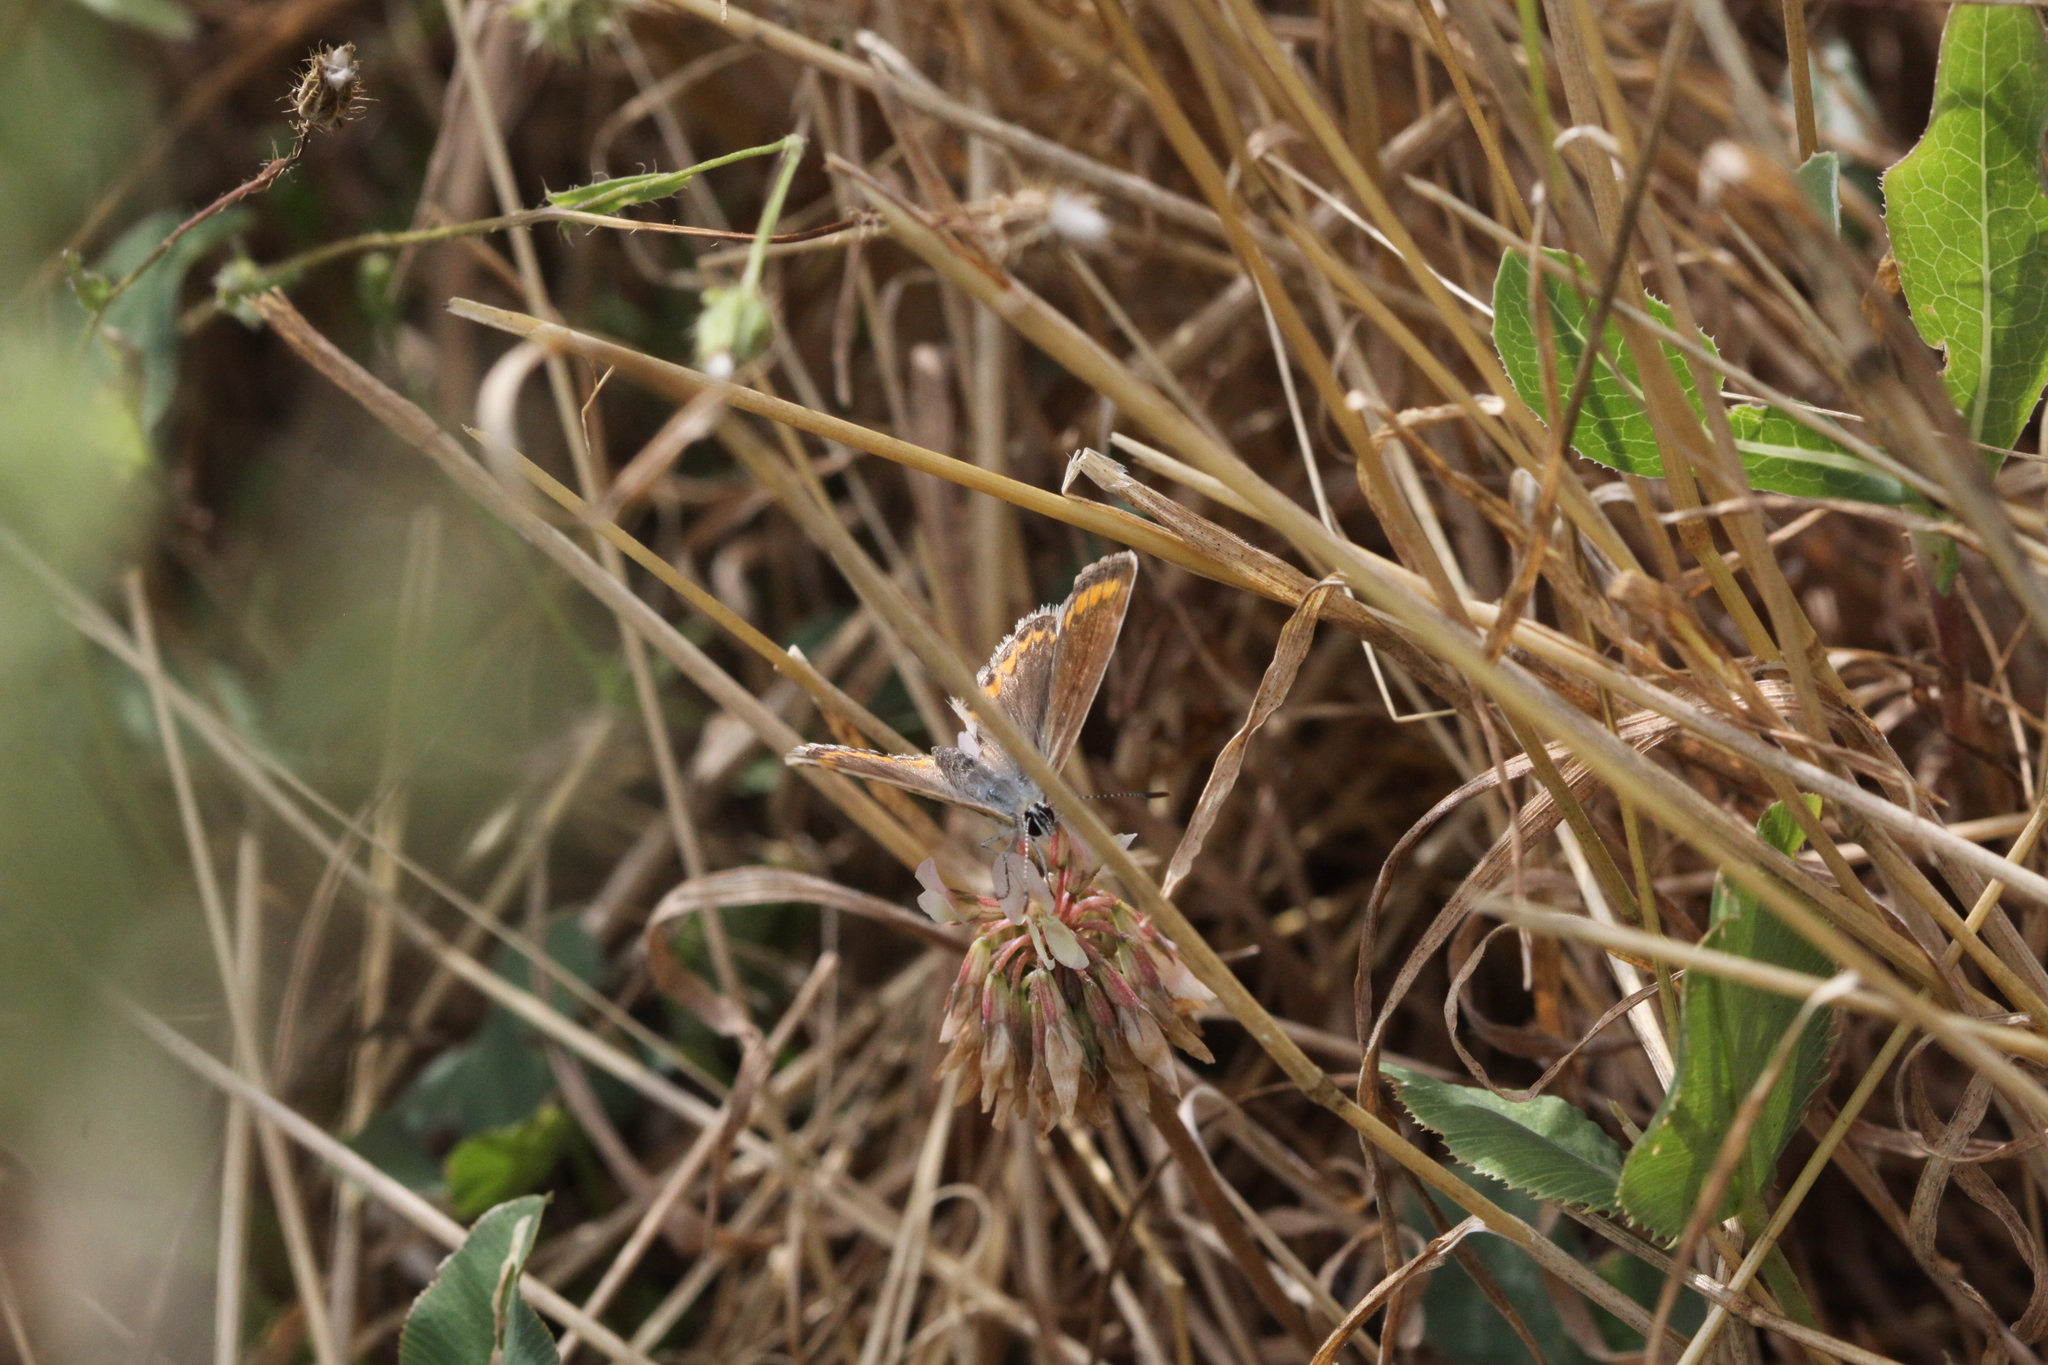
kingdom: Animalia
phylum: Arthropoda
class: Insecta
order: Lepidoptera
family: Lycaenidae
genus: Polyommatus
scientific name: Polyommatus icarus
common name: Common blue
